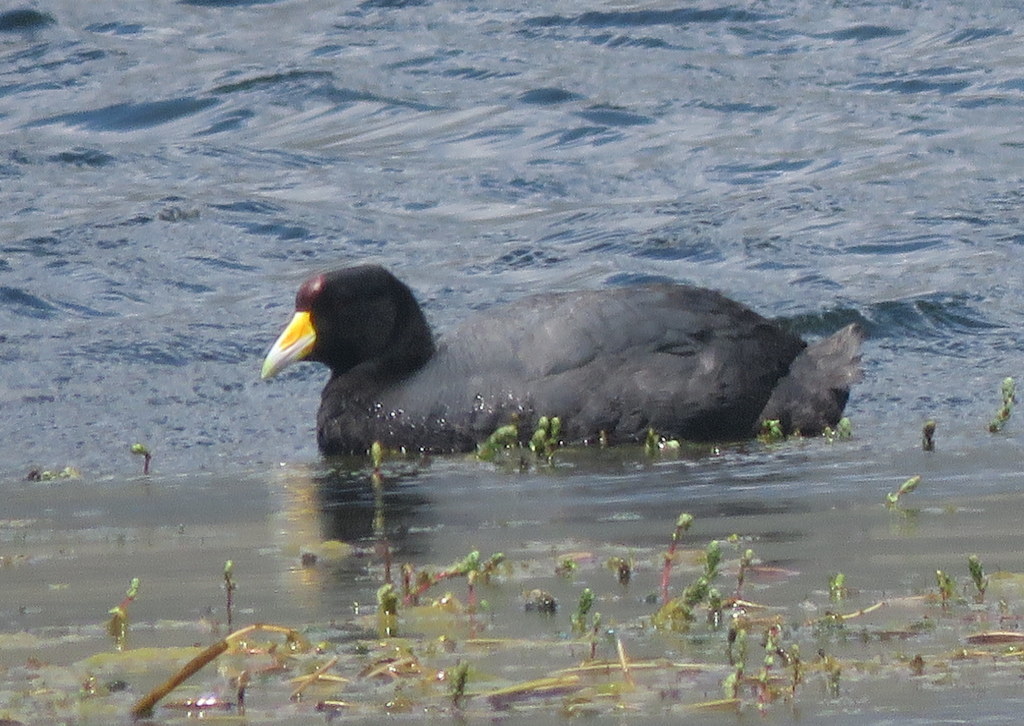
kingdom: Animalia
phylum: Chordata
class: Aves
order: Gruiformes
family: Rallidae
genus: Fulica
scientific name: Fulica ardesiaca
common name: Andean coot
